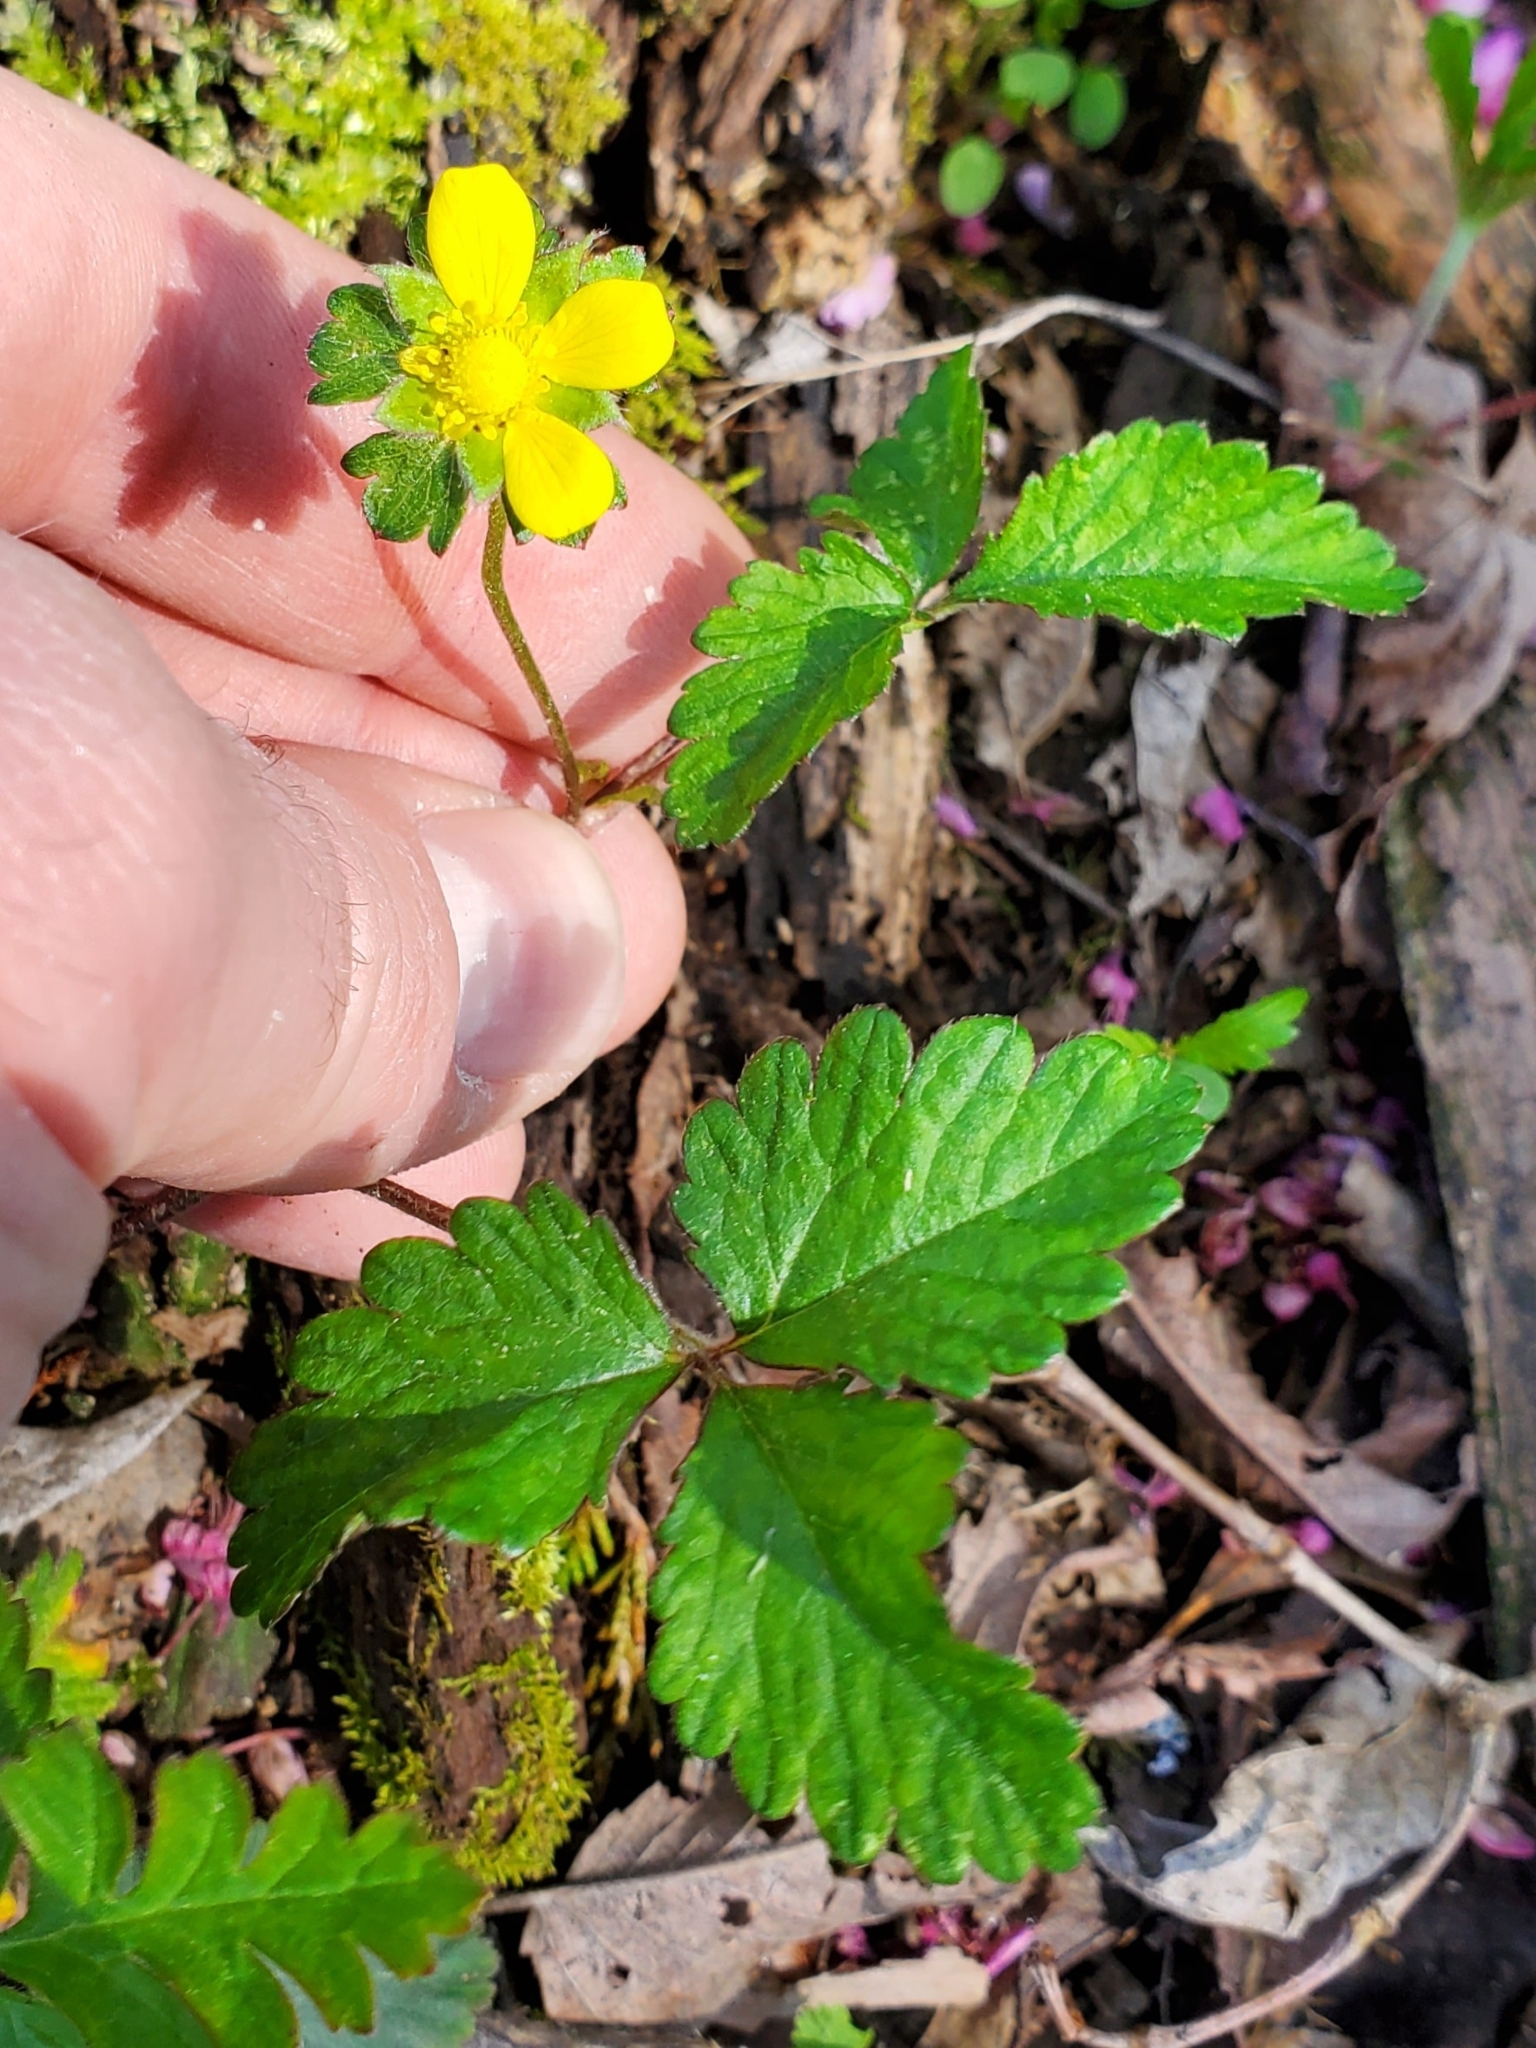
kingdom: Plantae
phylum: Tracheophyta
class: Magnoliopsida
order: Rosales
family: Rosaceae
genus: Potentilla
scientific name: Potentilla indica
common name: Yellow-flowered strawberry
